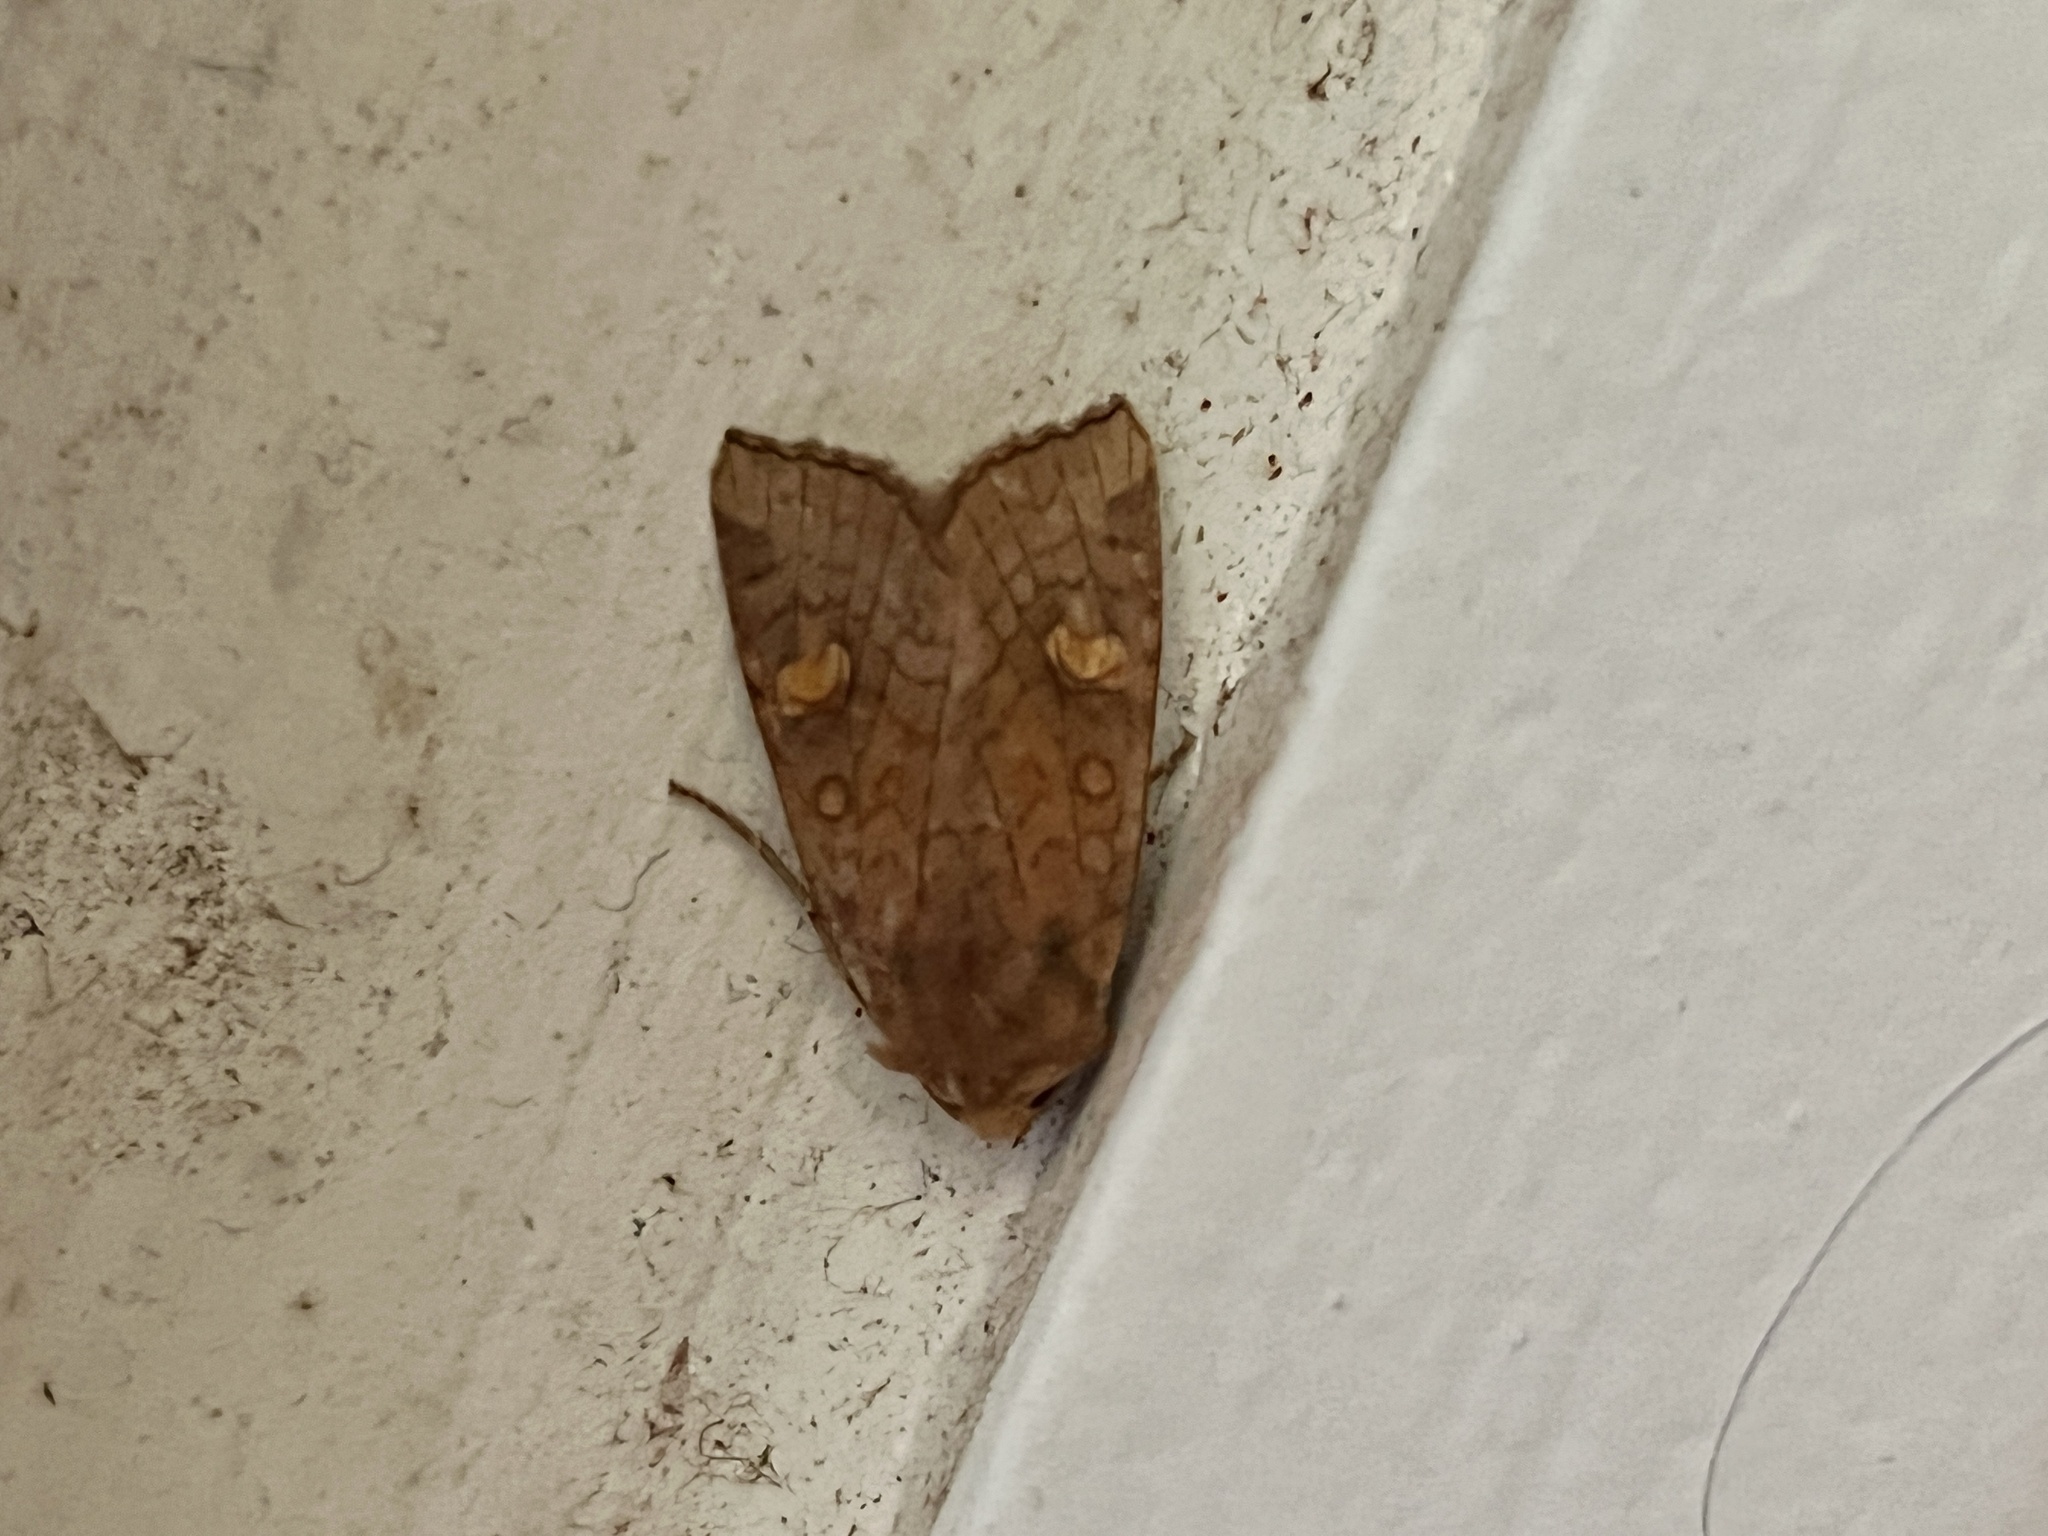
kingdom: Animalia
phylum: Arthropoda
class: Insecta
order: Lepidoptera
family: Noctuidae
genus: Amphipoea
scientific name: Amphipoea americana
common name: American ear moth
